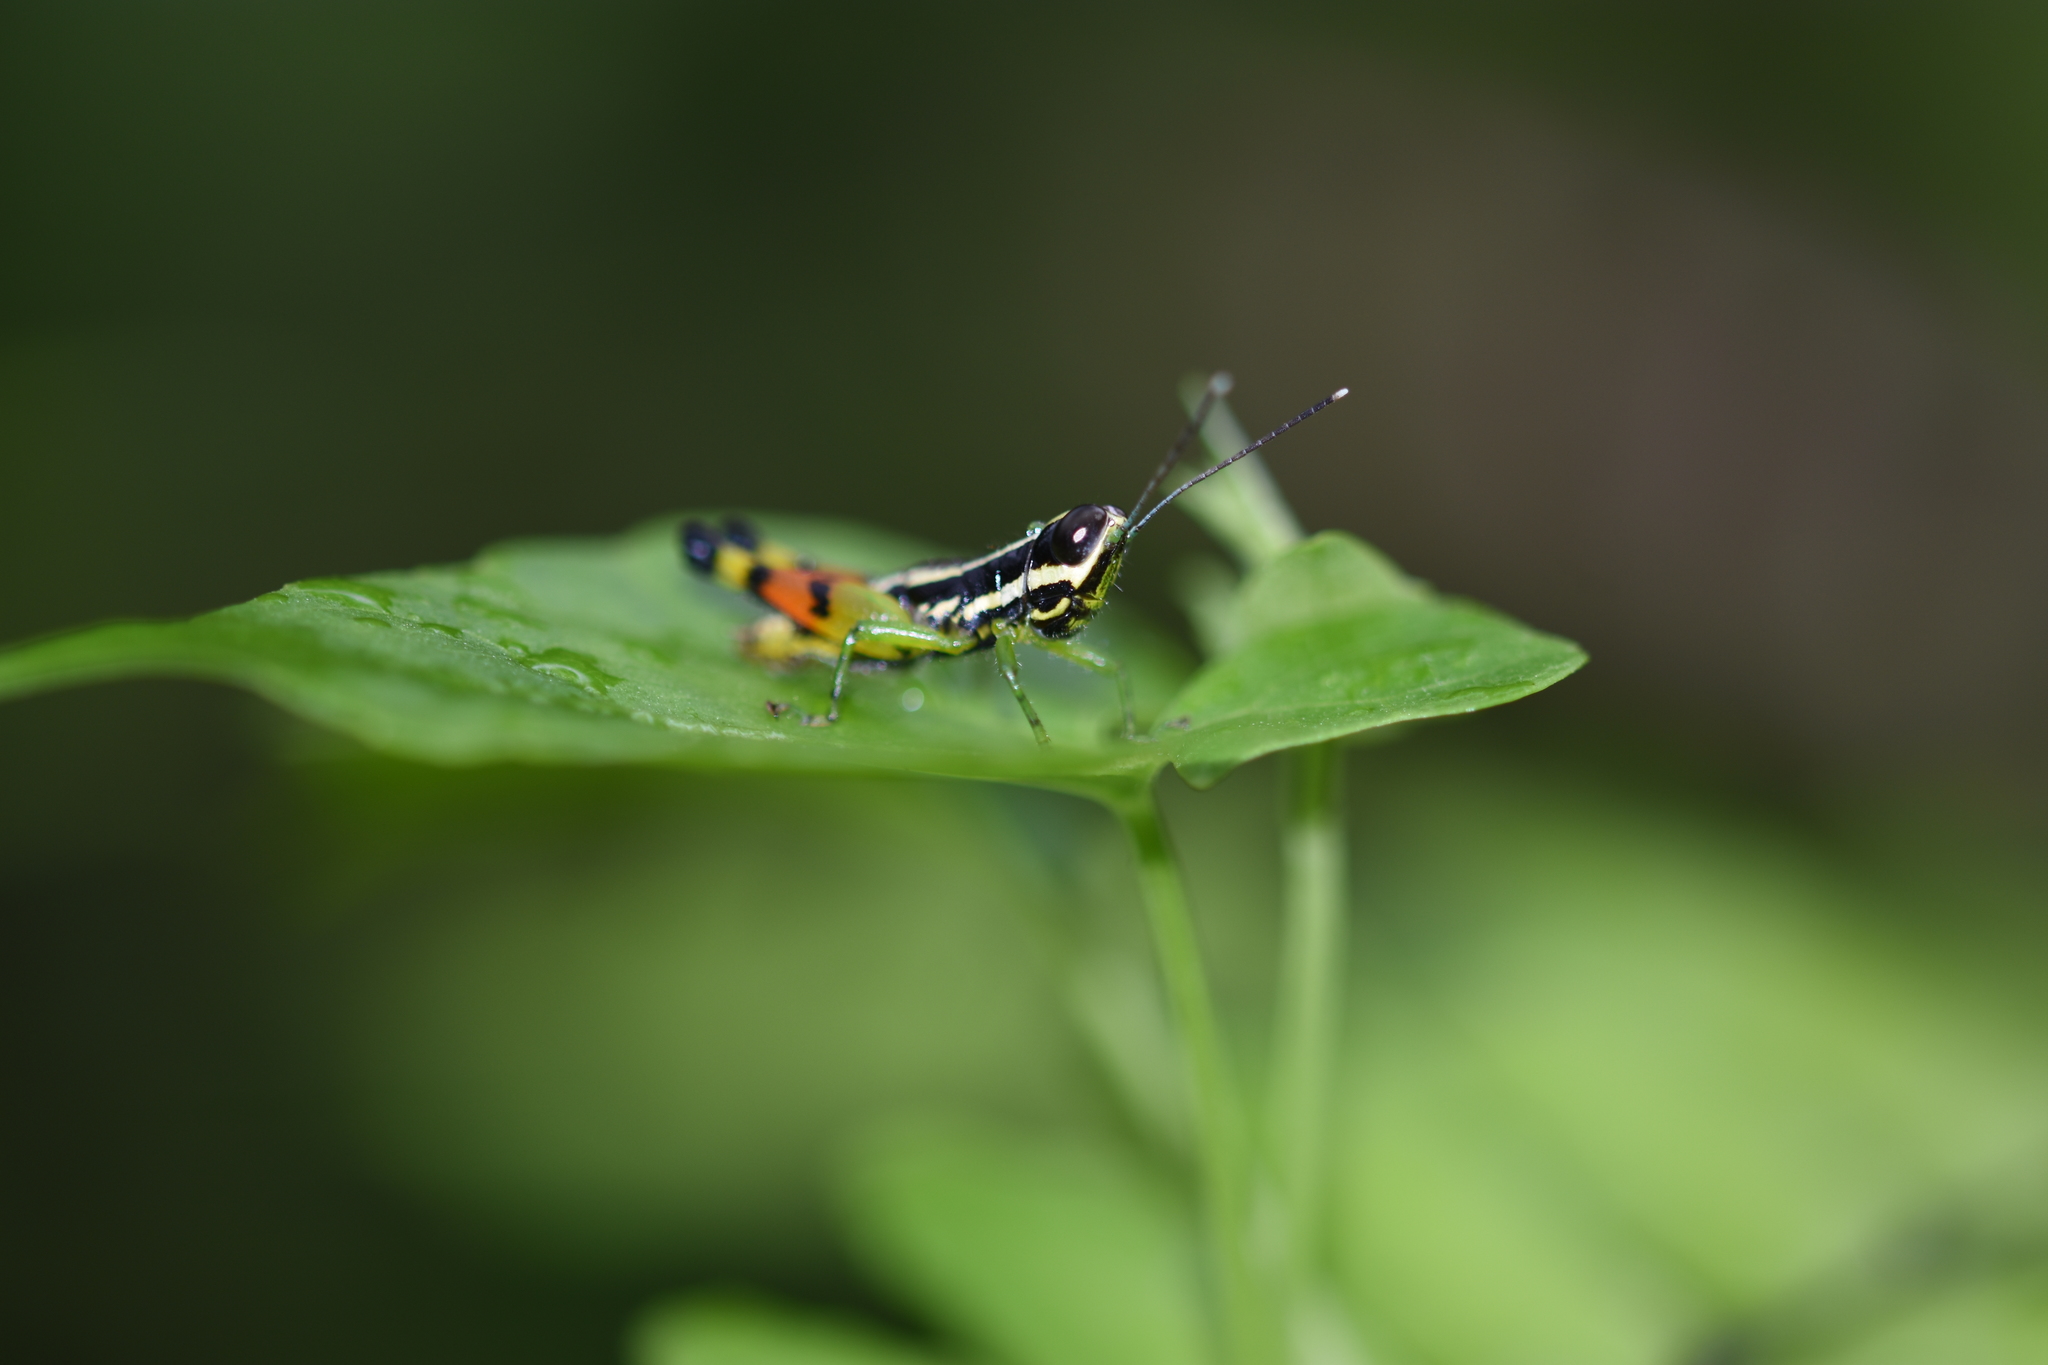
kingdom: Animalia
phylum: Arthropoda
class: Insecta
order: Orthoptera
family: Acrididae
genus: Chitaura
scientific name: Chitaura indica
